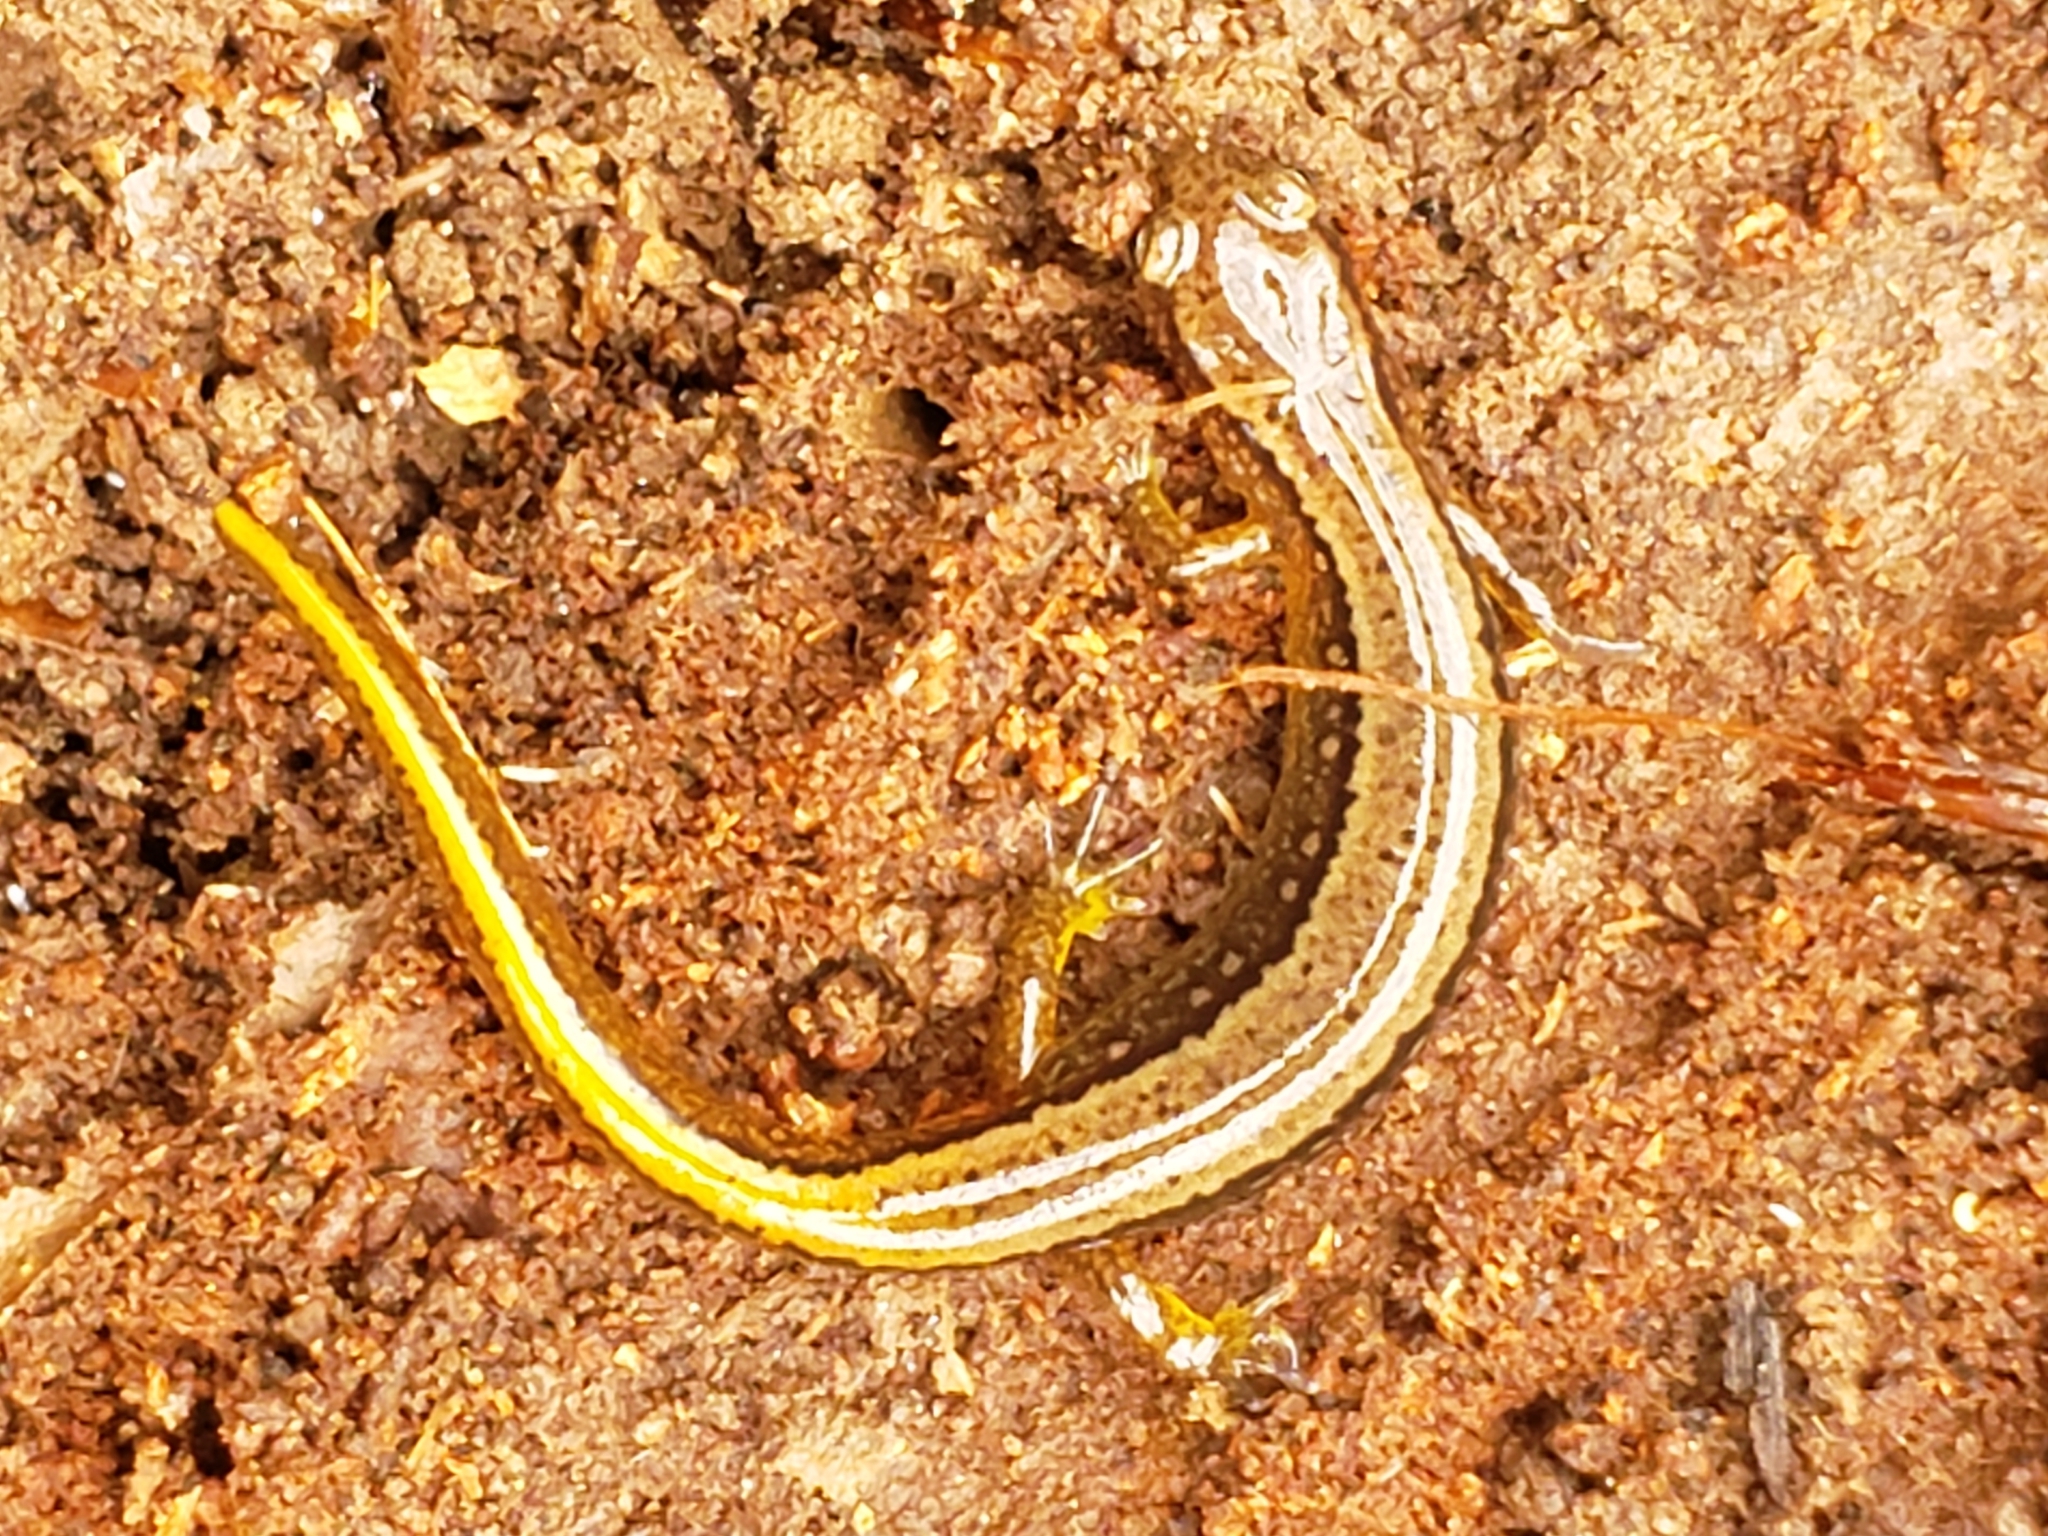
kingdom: Animalia
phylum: Chordata
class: Amphibia
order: Caudata
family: Plethodontidae
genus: Eurycea
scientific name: Eurycea bislineata
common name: Northern two-lined salamander
